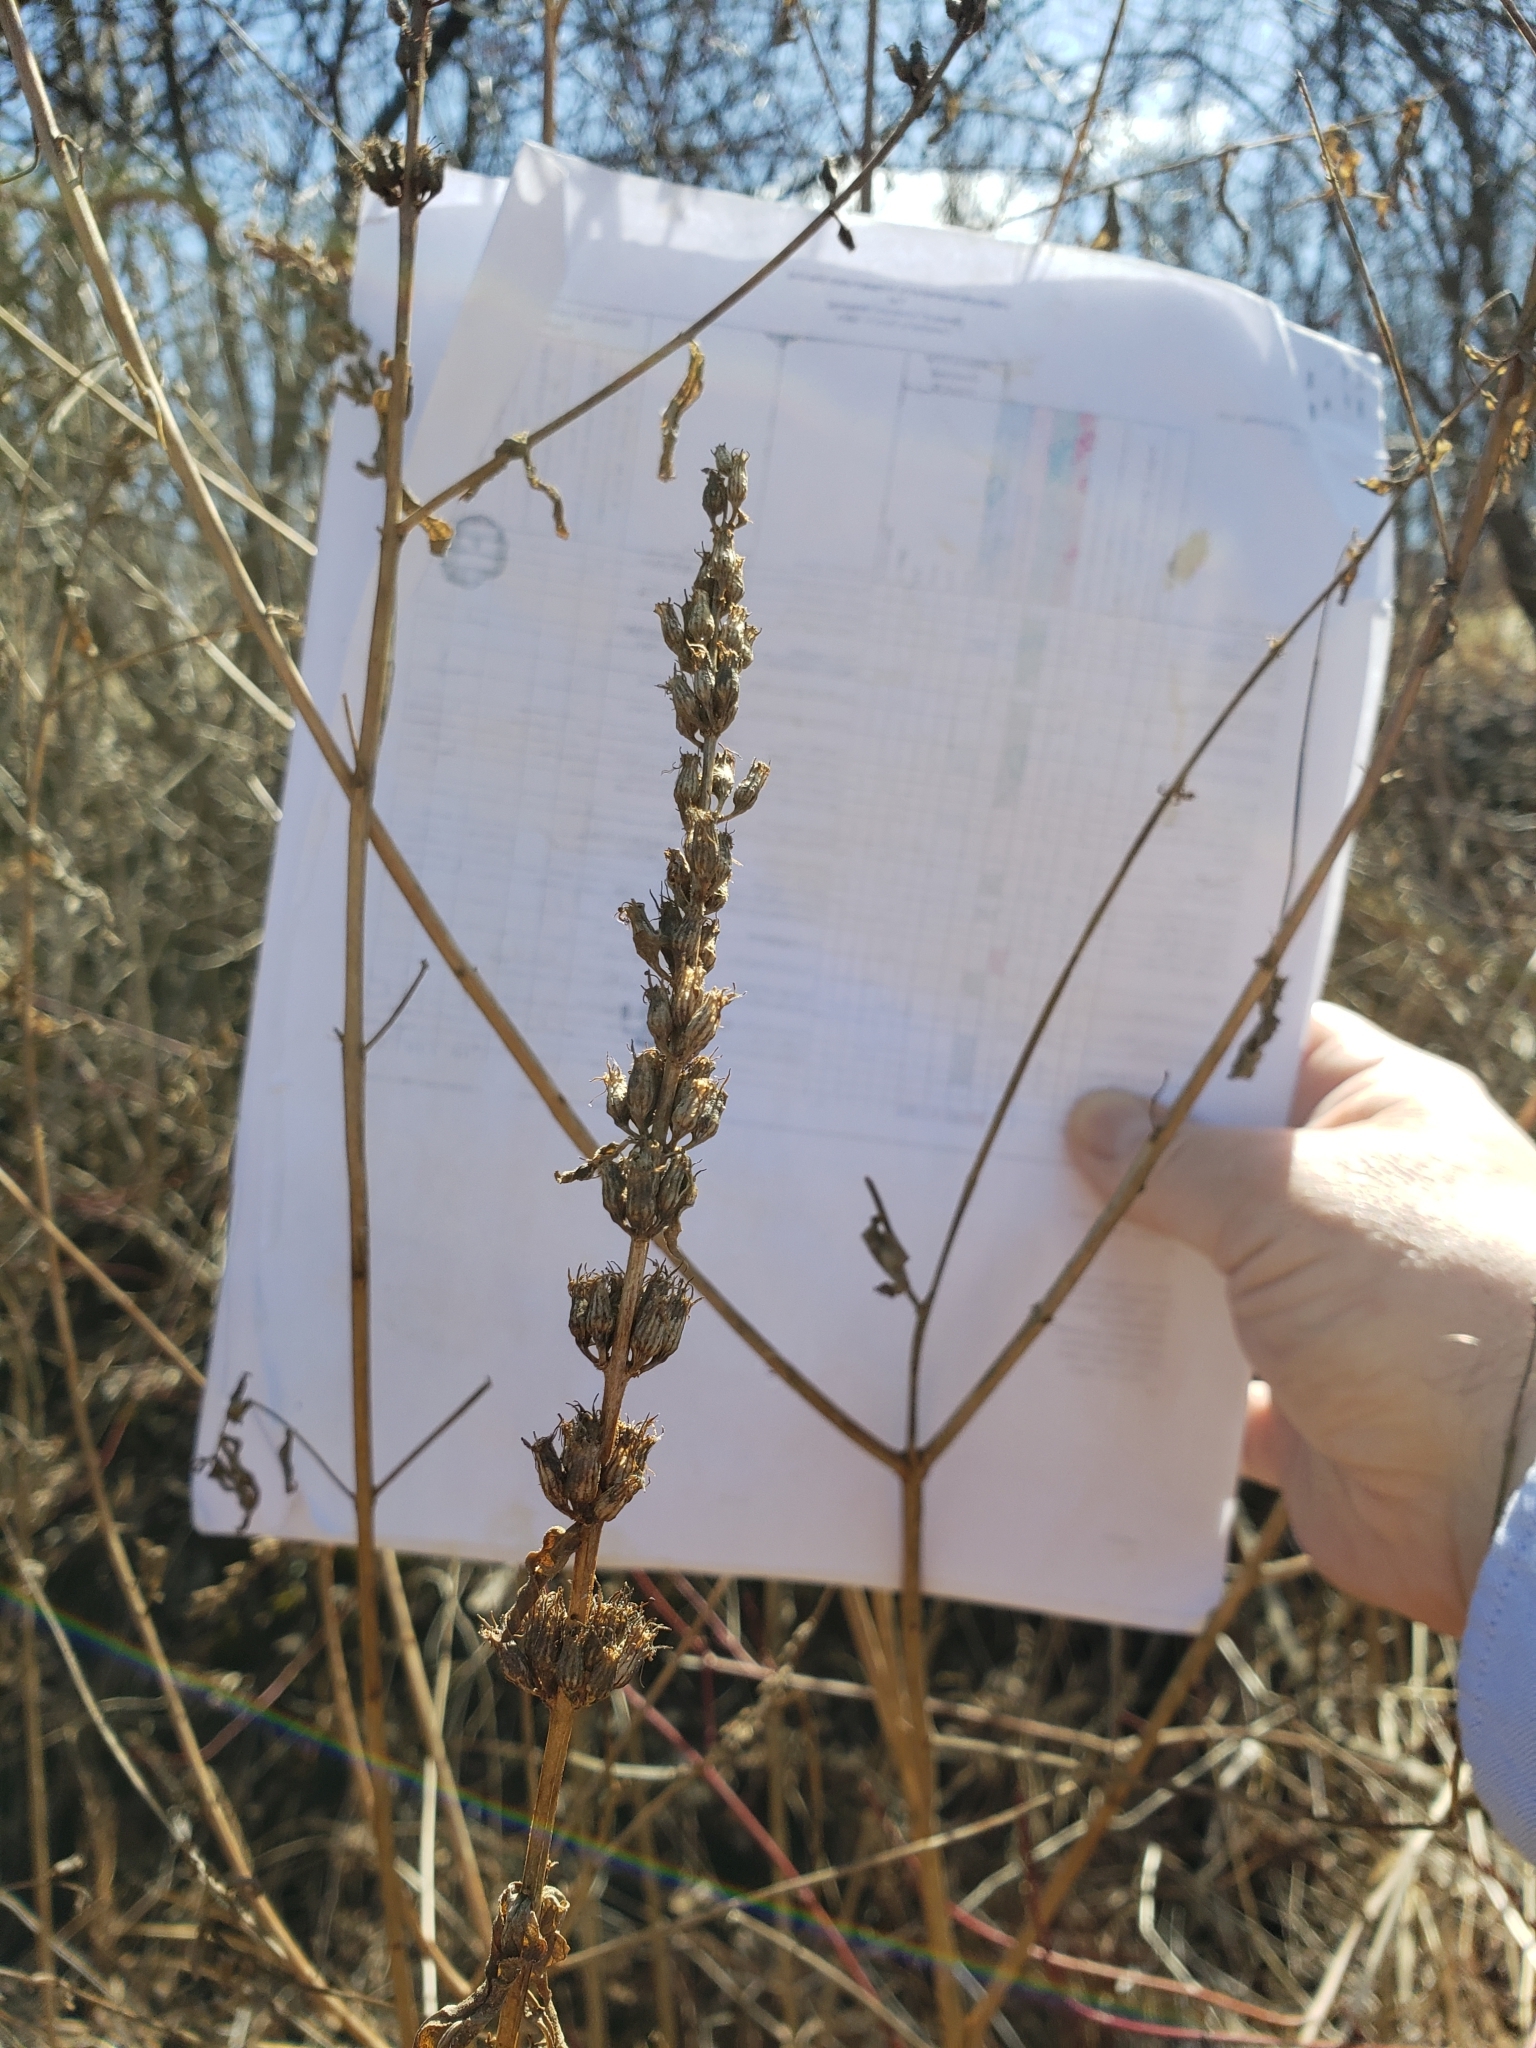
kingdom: Plantae
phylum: Tracheophyta
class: Magnoliopsida
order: Myrtales
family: Lythraceae
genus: Lythrum
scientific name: Lythrum salicaria
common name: Purple loosestrife
